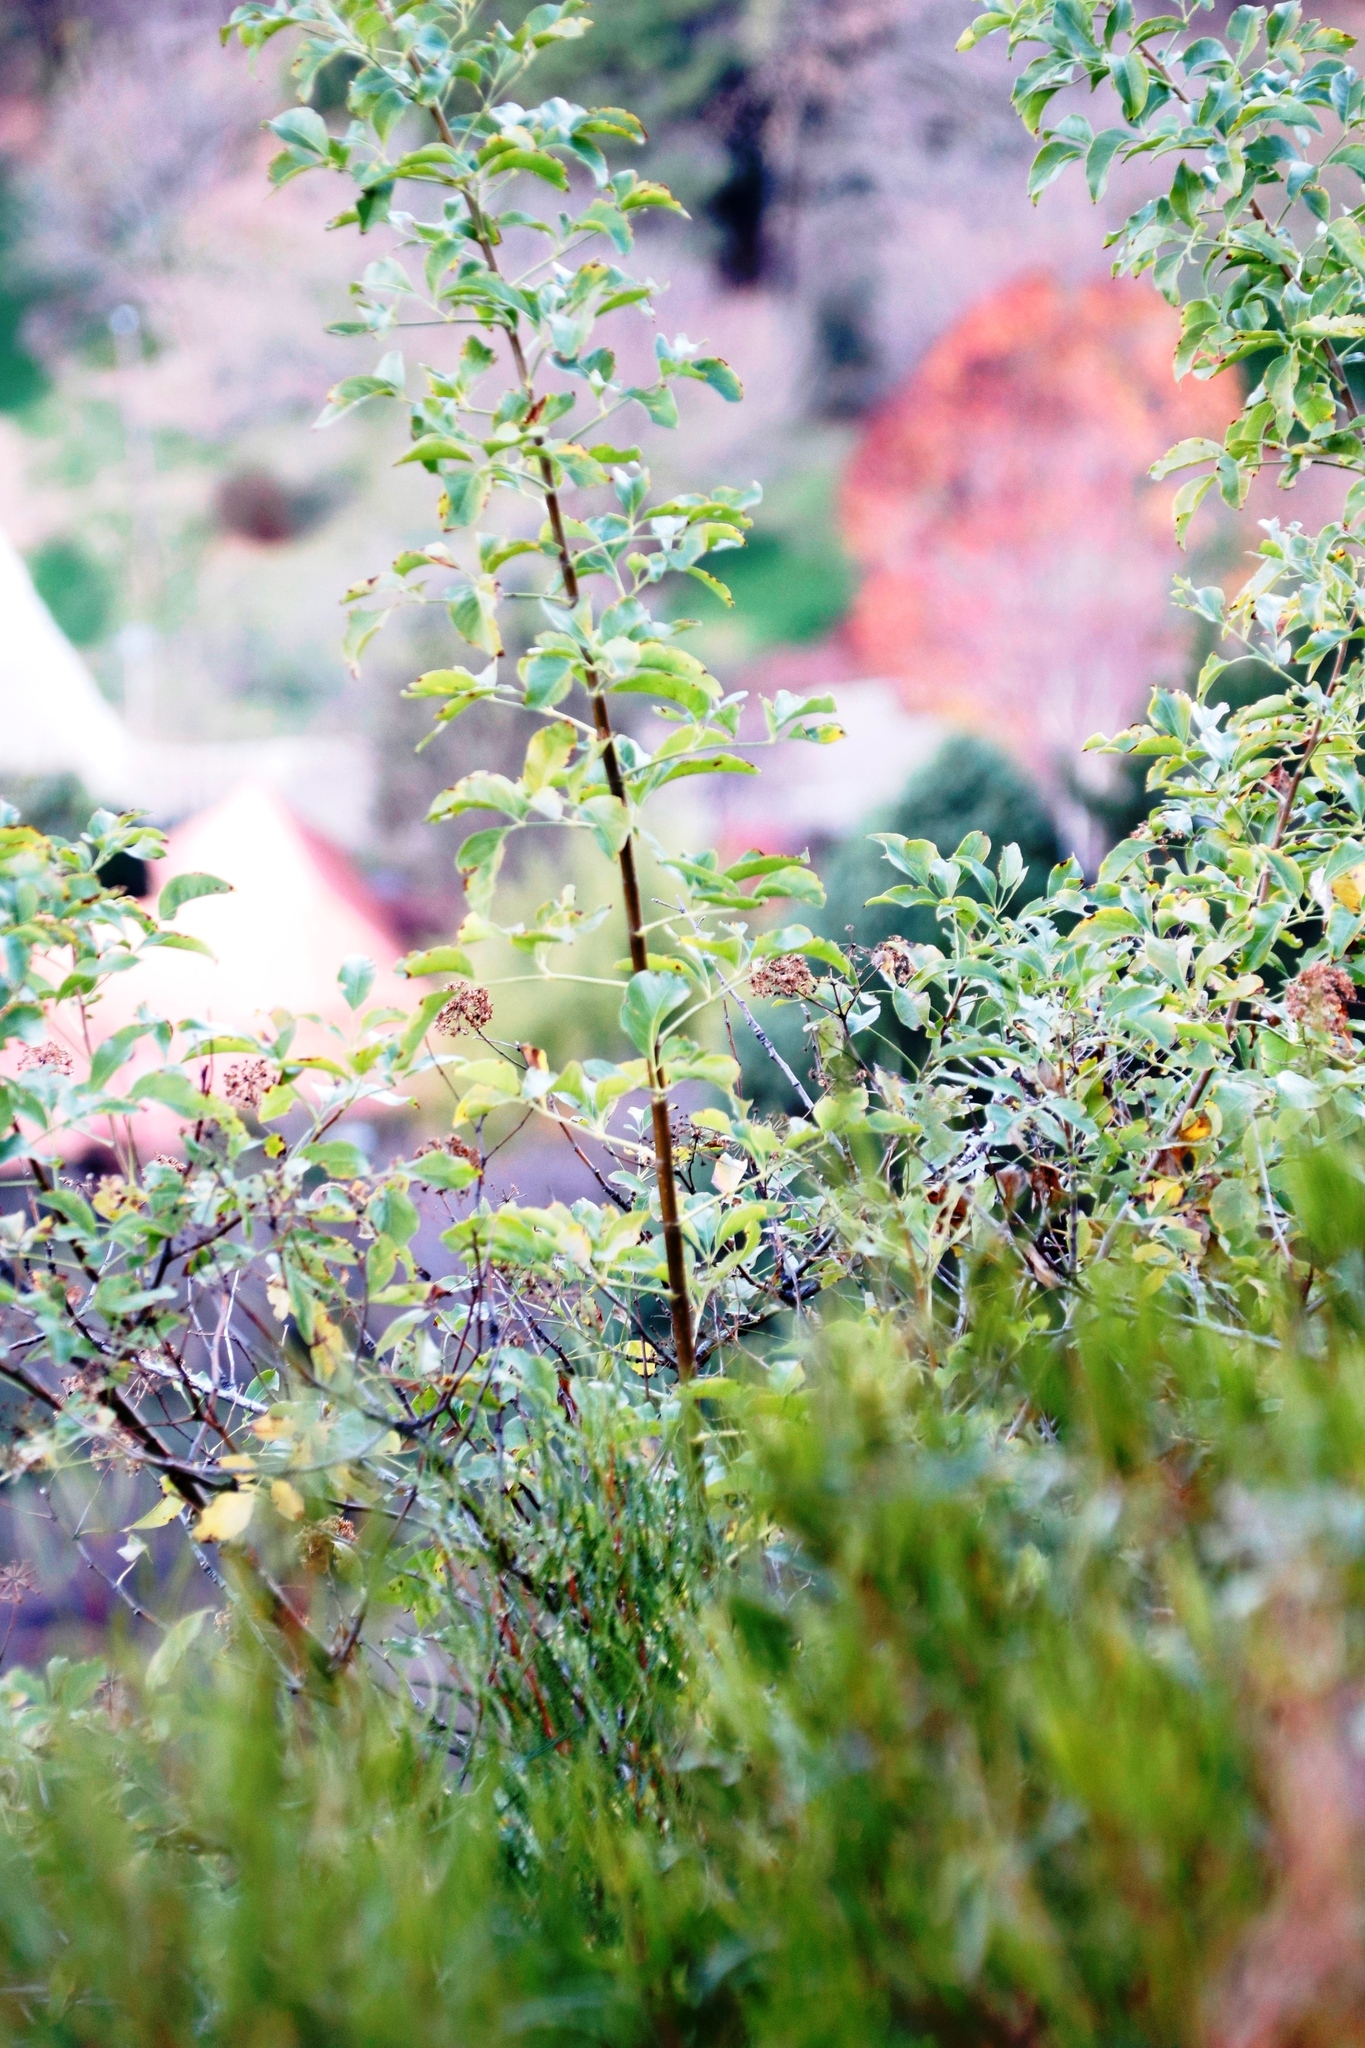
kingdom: Plantae
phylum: Tracheophyta
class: Magnoliopsida
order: Apiales
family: Apiaceae
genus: Heteromorpha
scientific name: Heteromorpha arborescens
